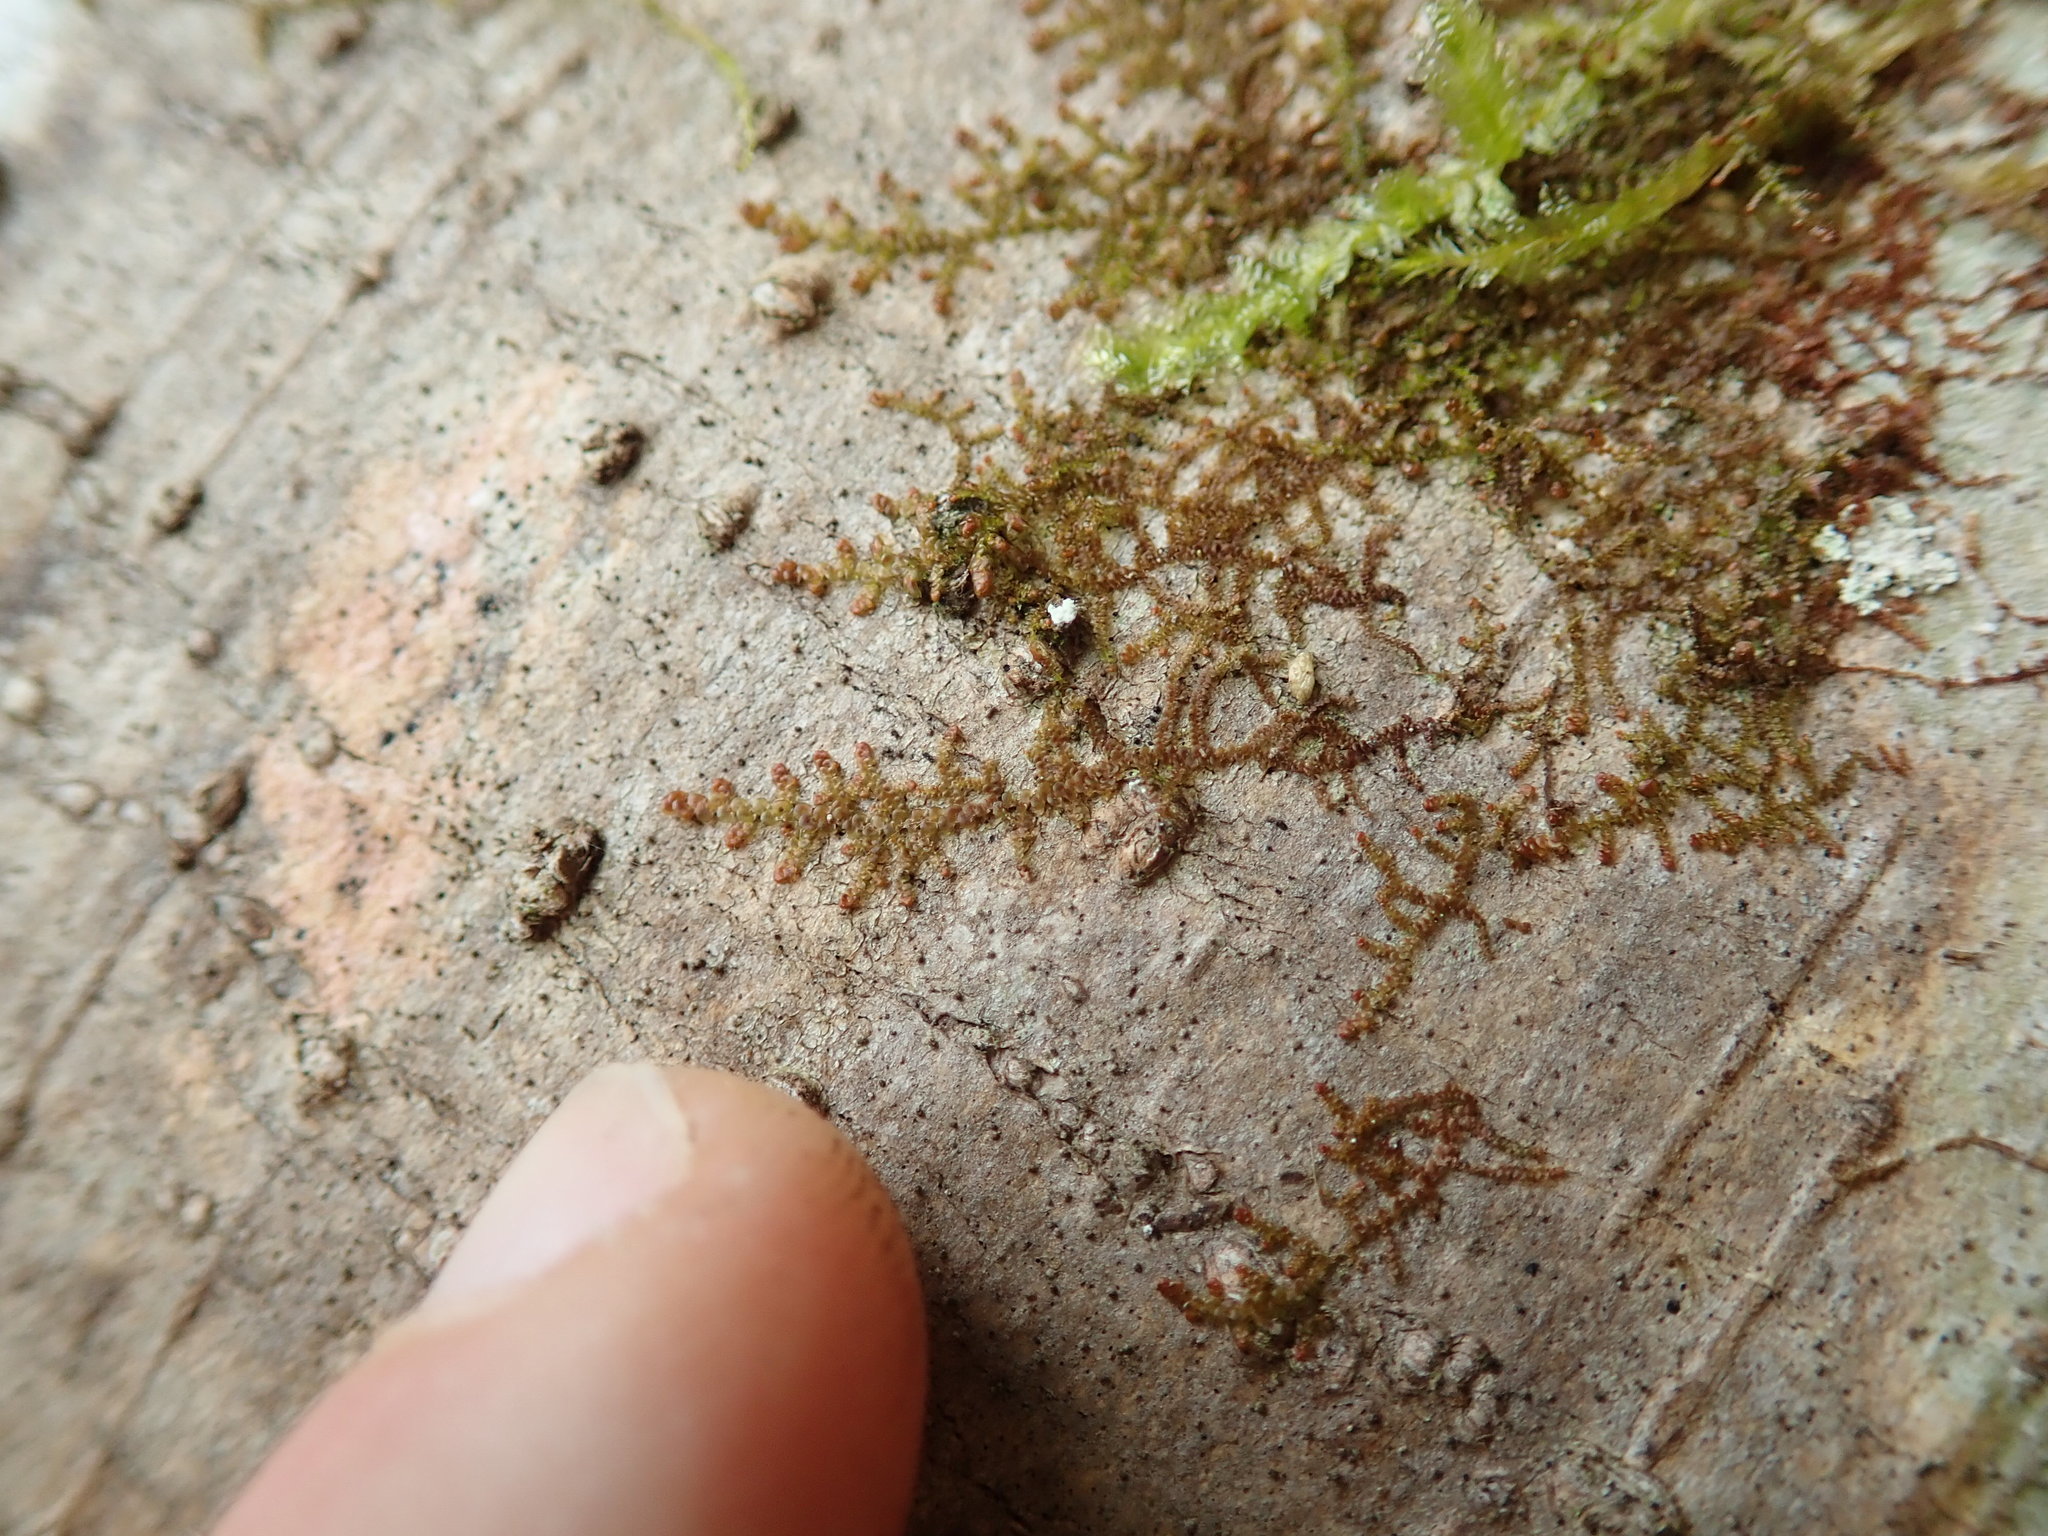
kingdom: Plantae
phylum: Marchantiophyta
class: Jungermanniopsida
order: Porellales
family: Frullaniaceae
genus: Frullania
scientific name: Frullania nisquallensis
